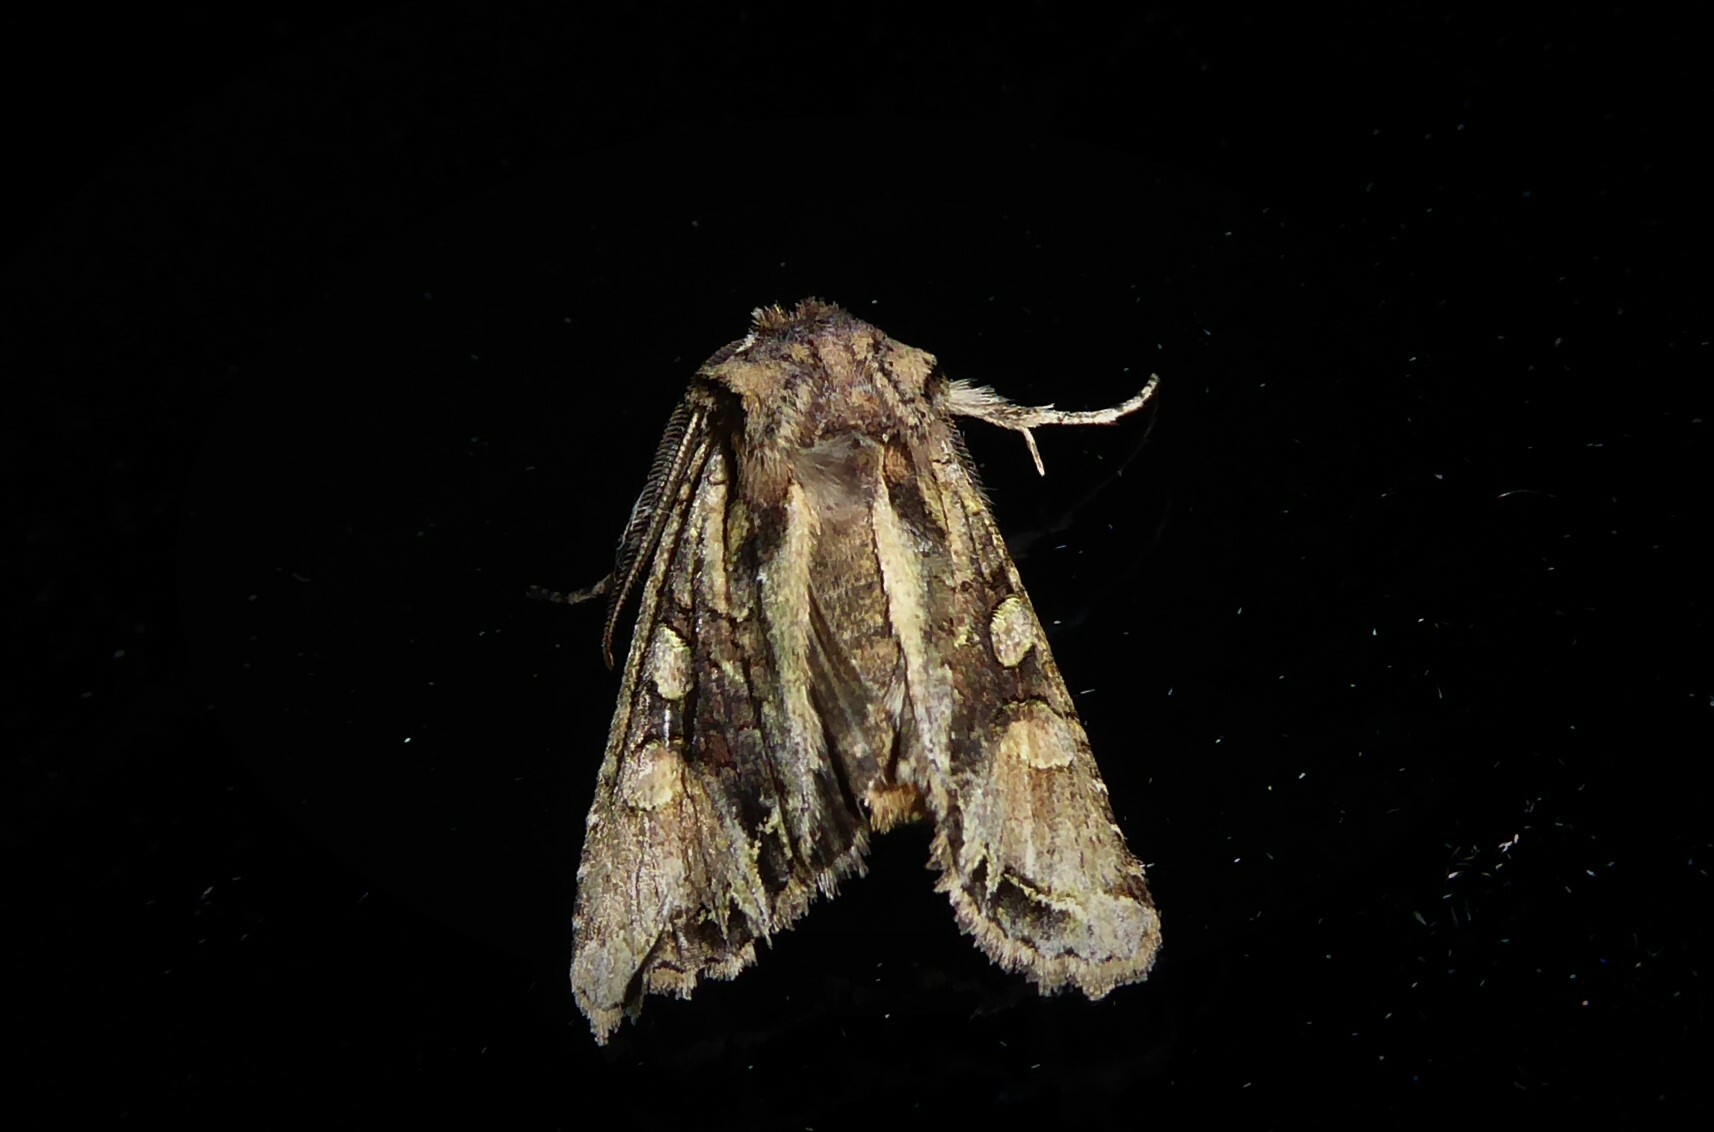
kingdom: Animalia
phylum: Arthropoda
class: Insecta
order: Lepidoptera
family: Noctuidae
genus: Ichneutica
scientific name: Ichneutica
